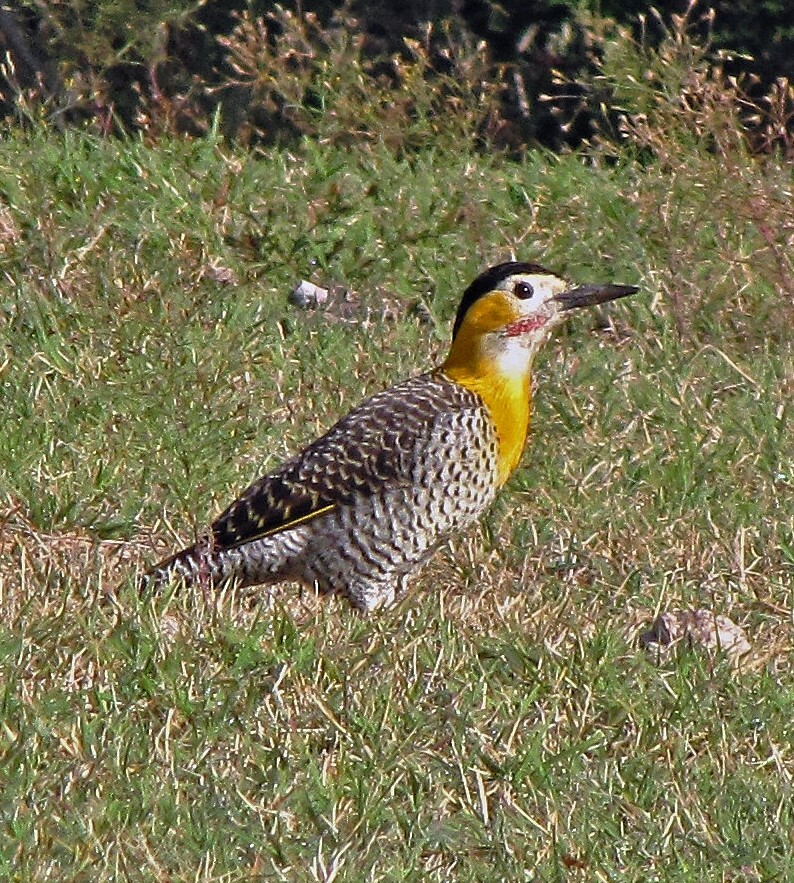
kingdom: Animalia
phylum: Chordata
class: Aves
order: Piciformes
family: Picidae
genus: Colaptes
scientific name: Colaptes campestris
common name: Campo flicker
